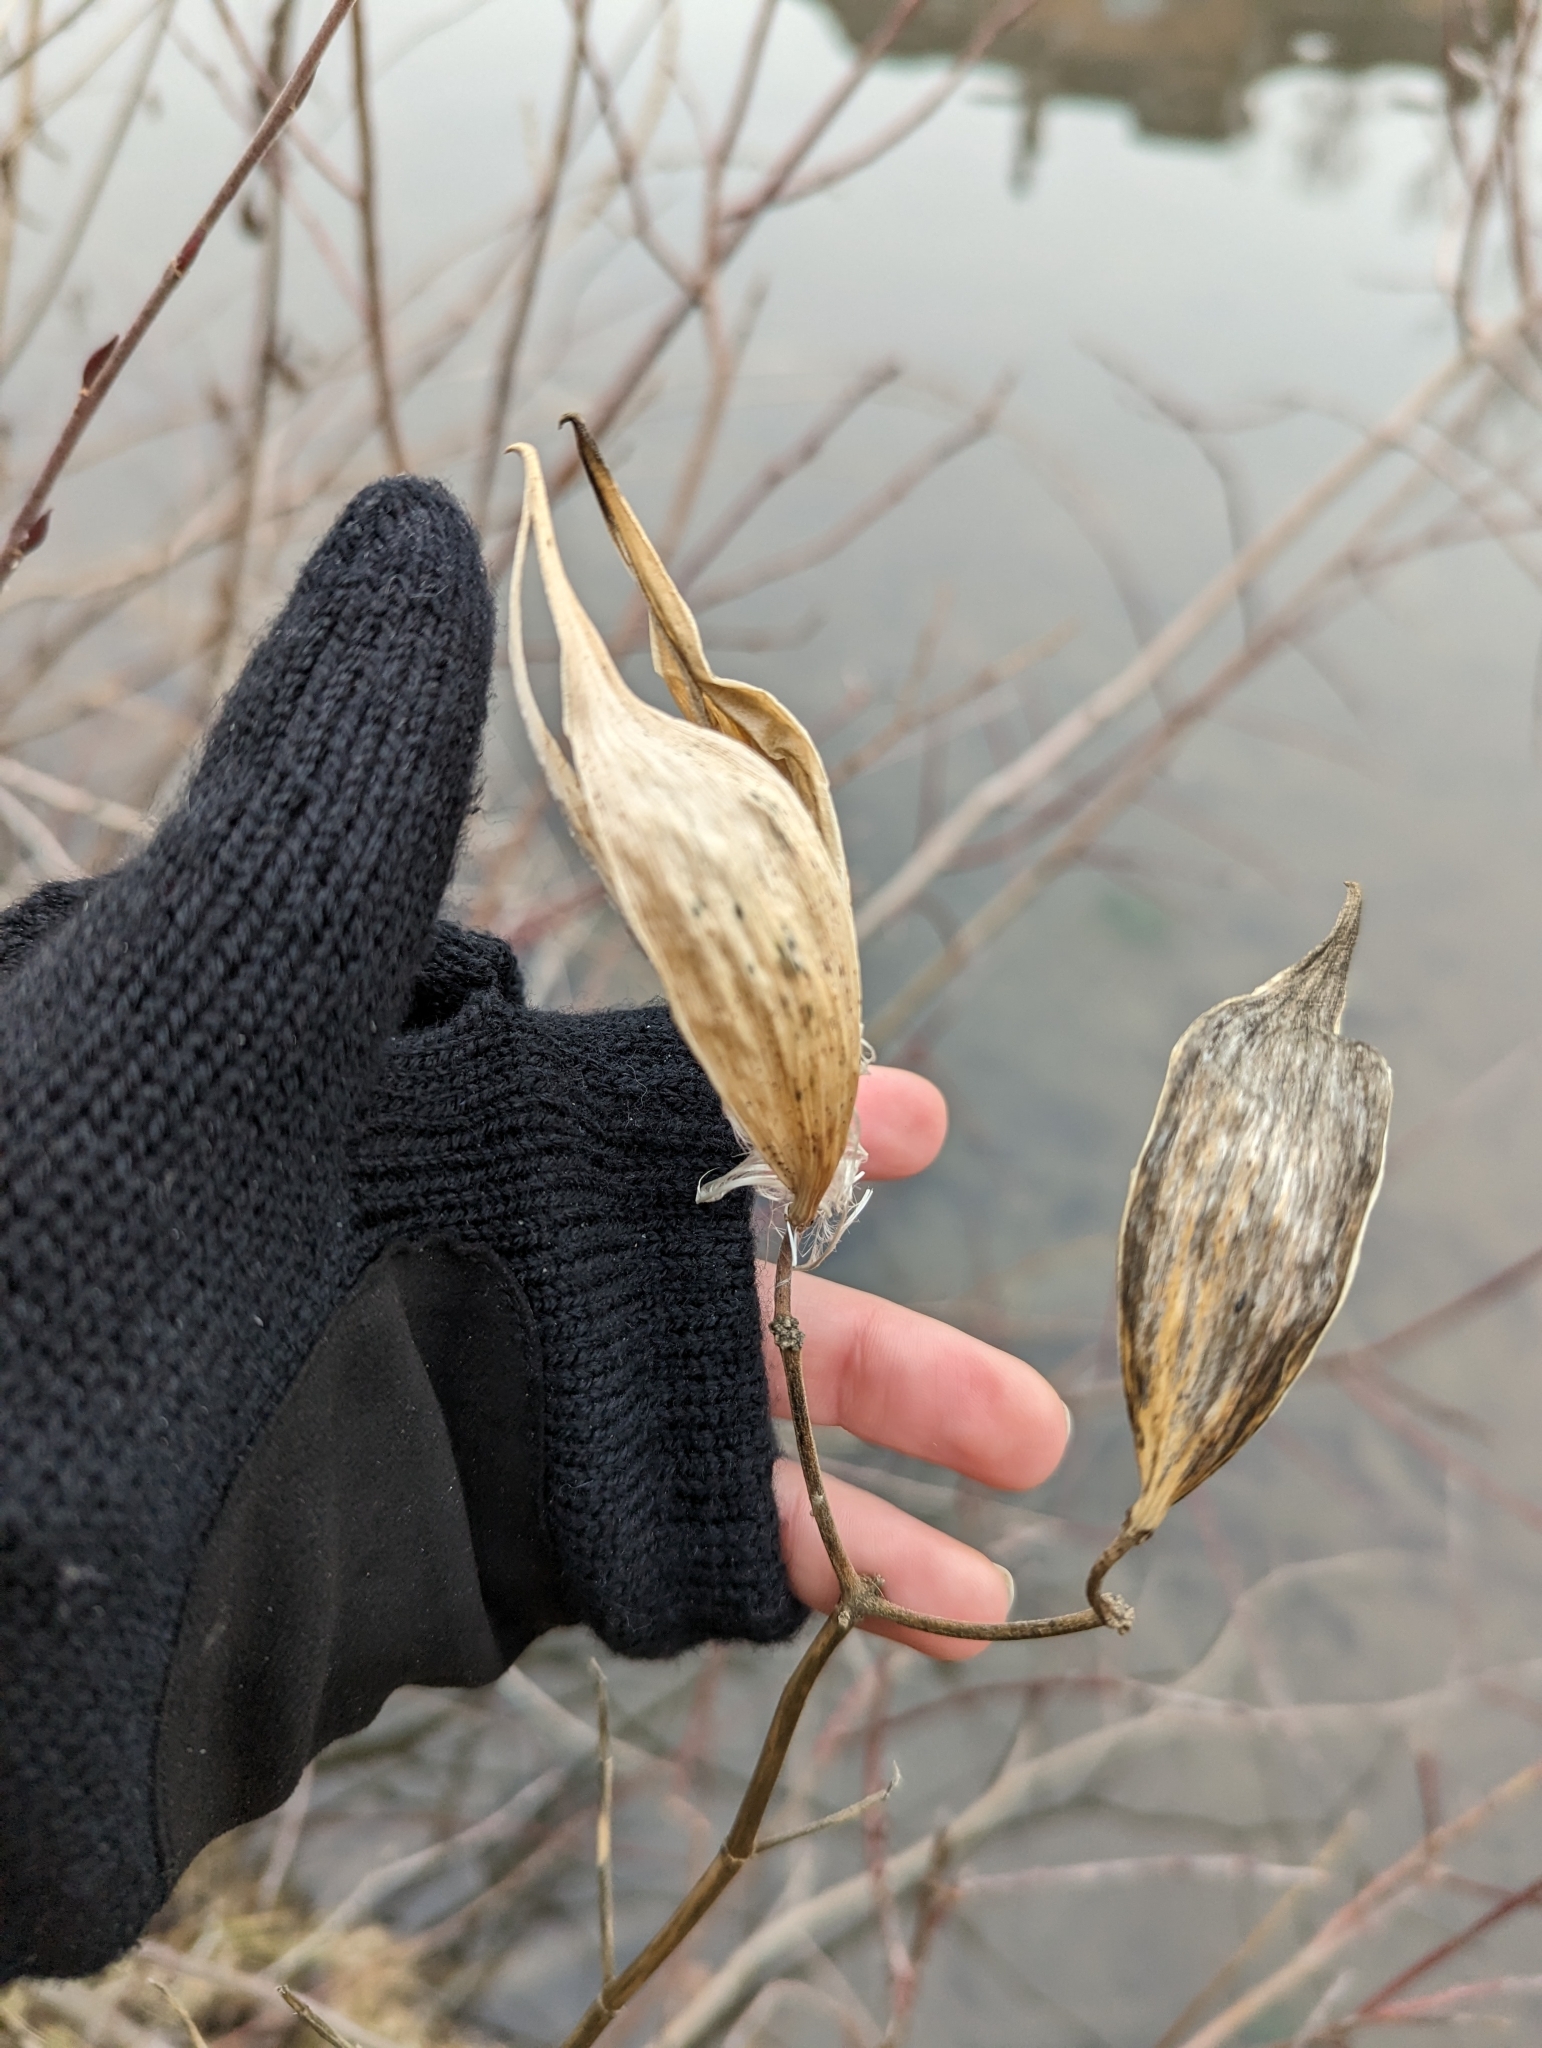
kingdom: Plantae
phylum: Tracheophyta
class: Magnoliopsida
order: Gentianales
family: Apocynaceae
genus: Asclepias
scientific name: Asclepias incarnata
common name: Swamp milkweed
